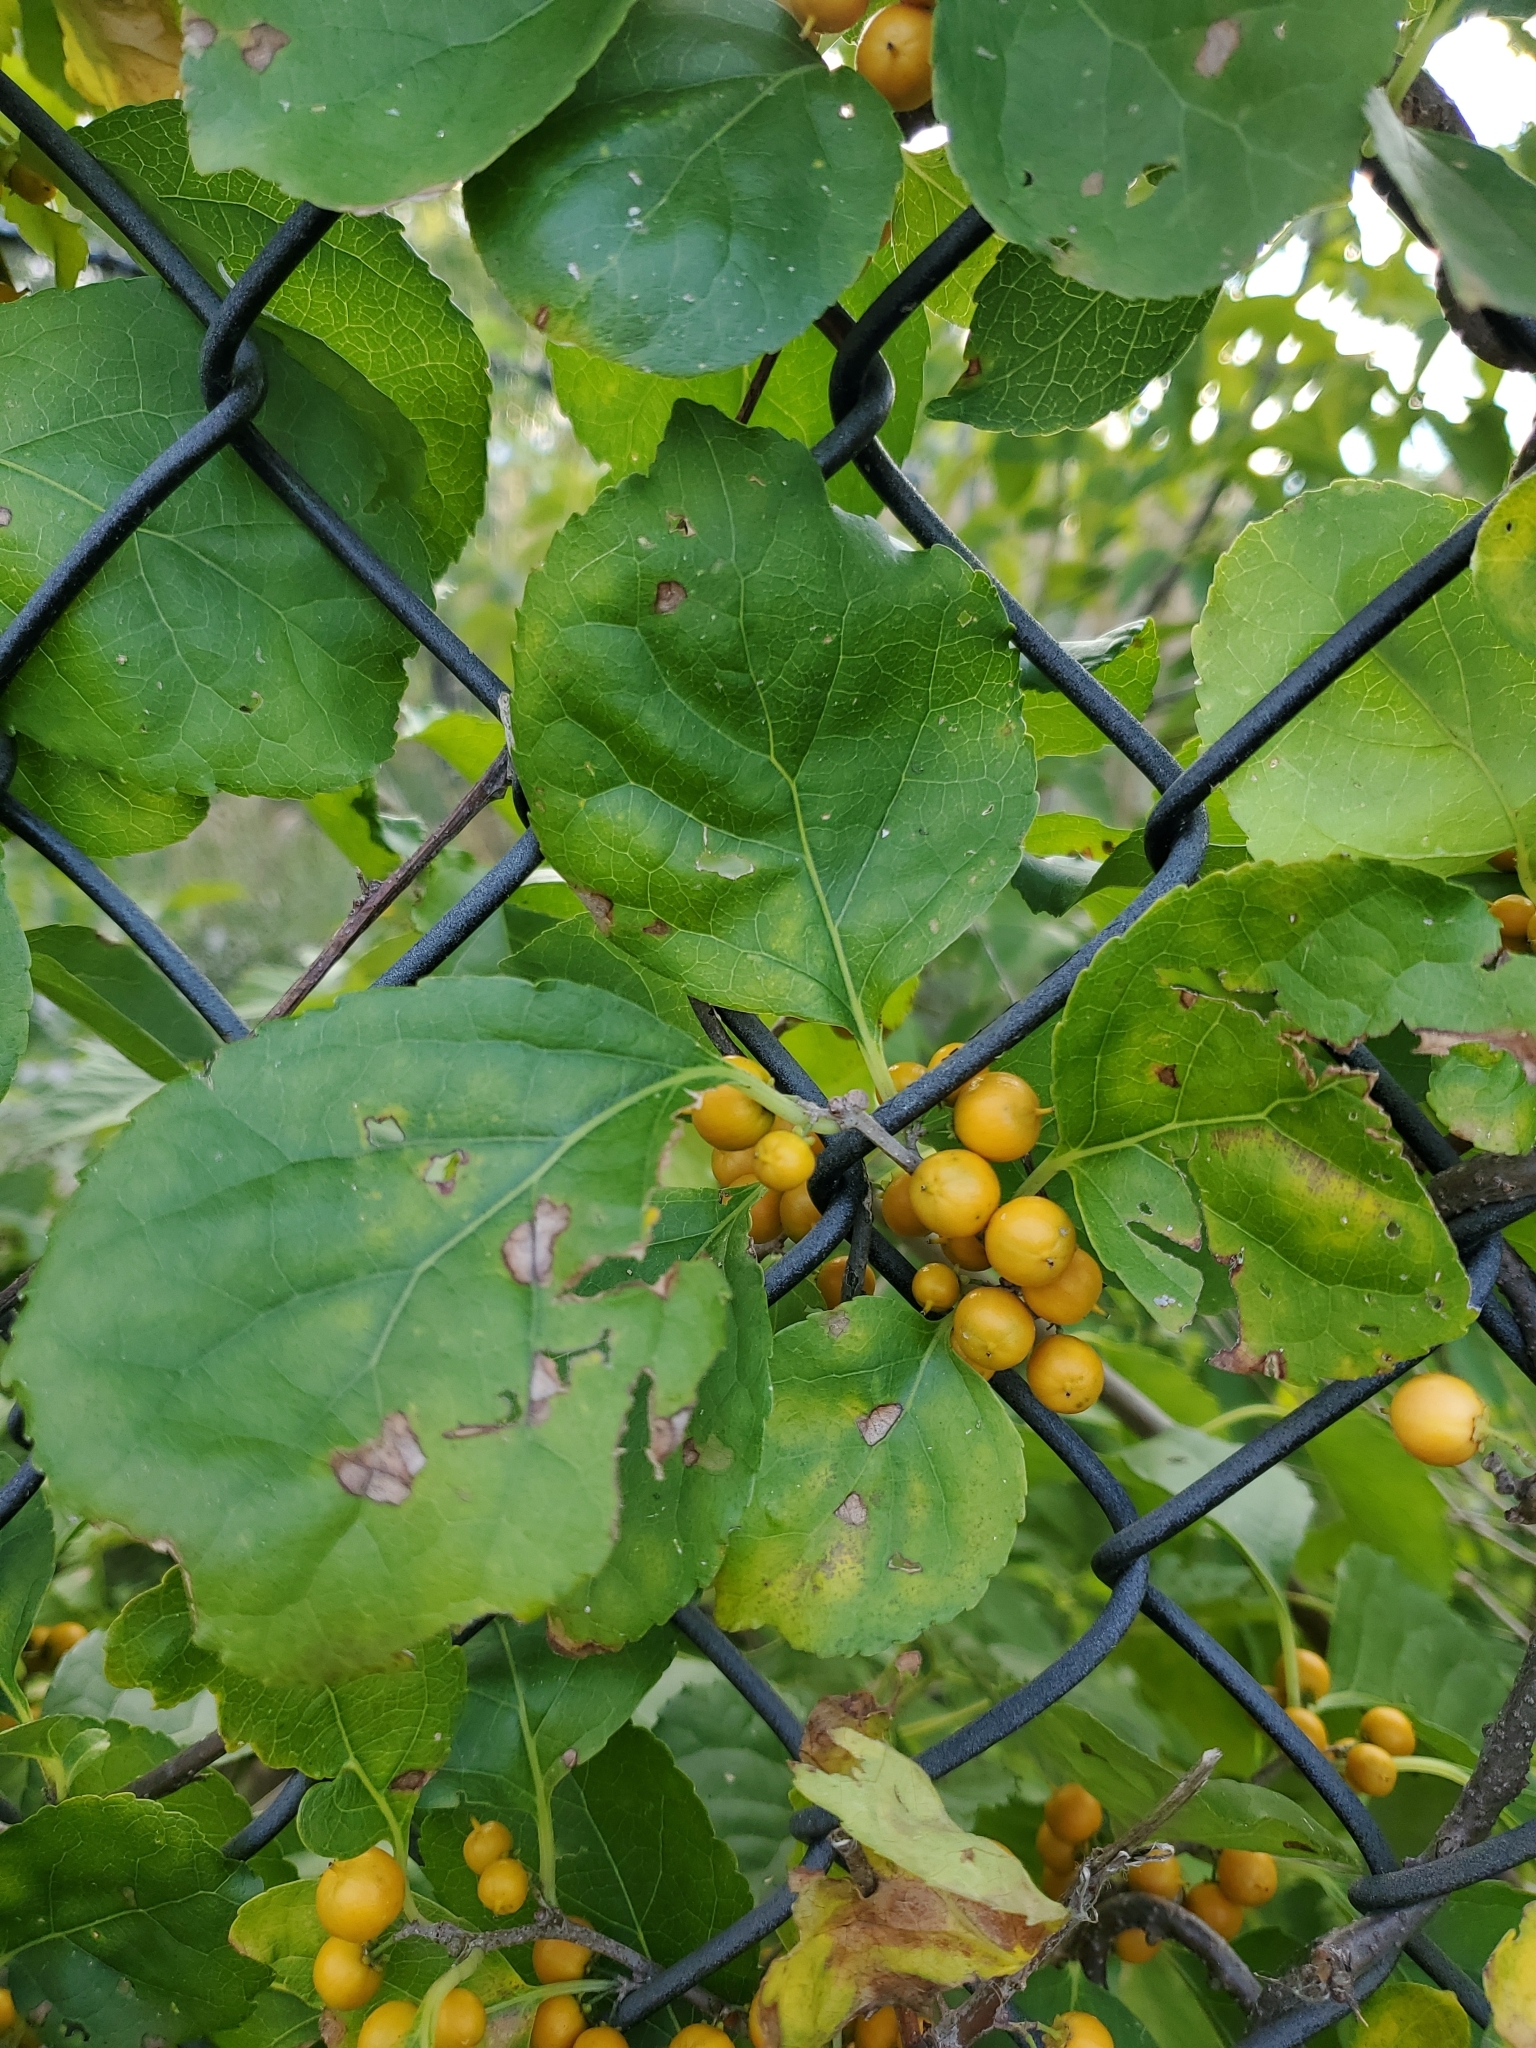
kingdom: Plantae
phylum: Tracheophyta
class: Magnoliopsida
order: Celastrales
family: Celastraceae
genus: Celastrus
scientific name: Celastrus orbiculatus
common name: Oriental bittersweet
